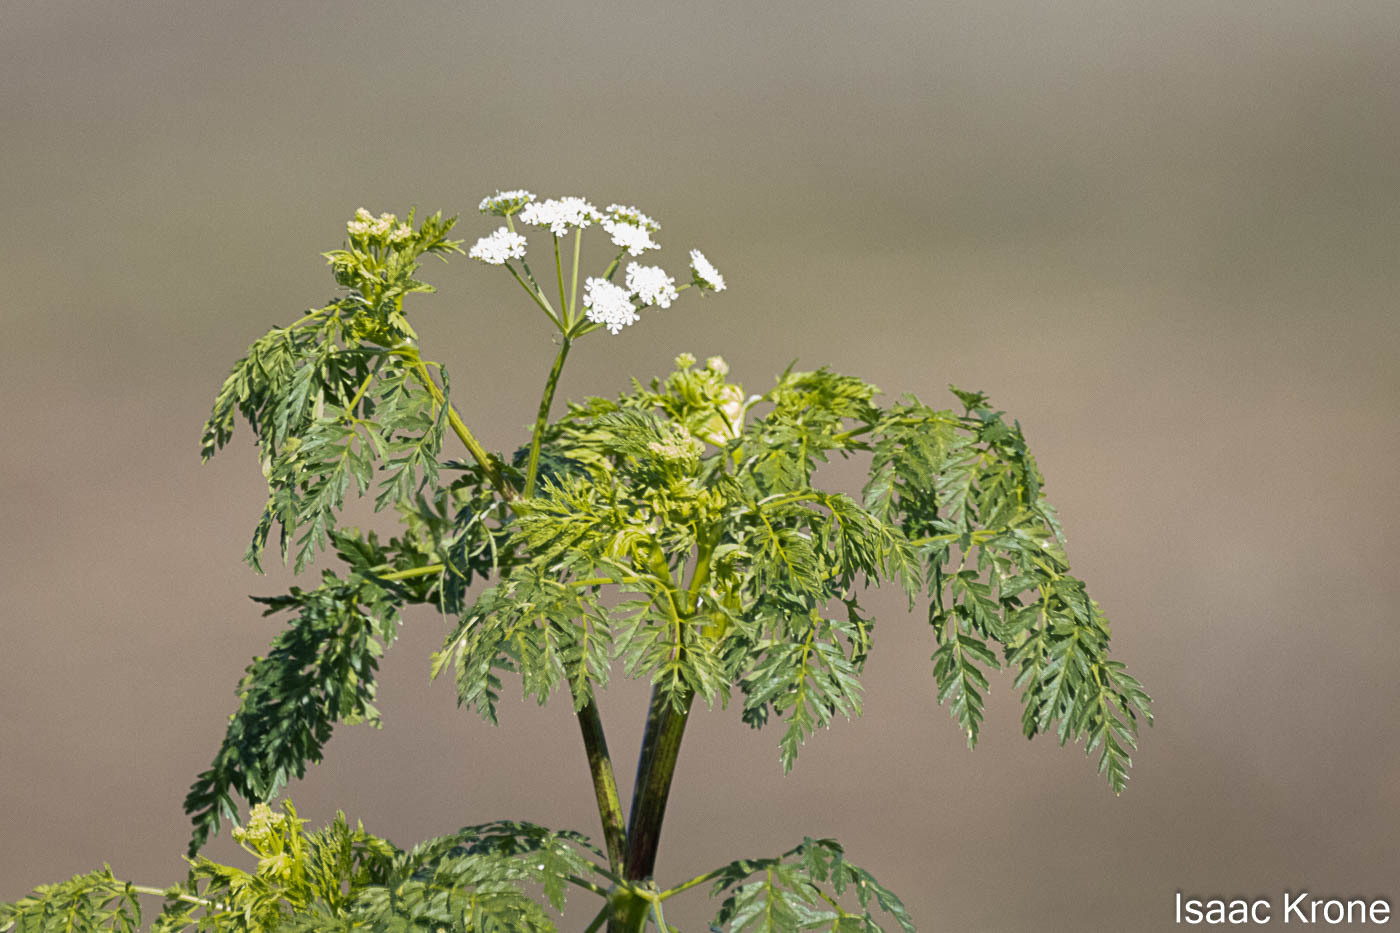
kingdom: Plantae
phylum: Tracheophyta
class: Magnoliopsida
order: Apiales
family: Apiaceae
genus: Conium
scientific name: Conium maculatum
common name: Hemlock
